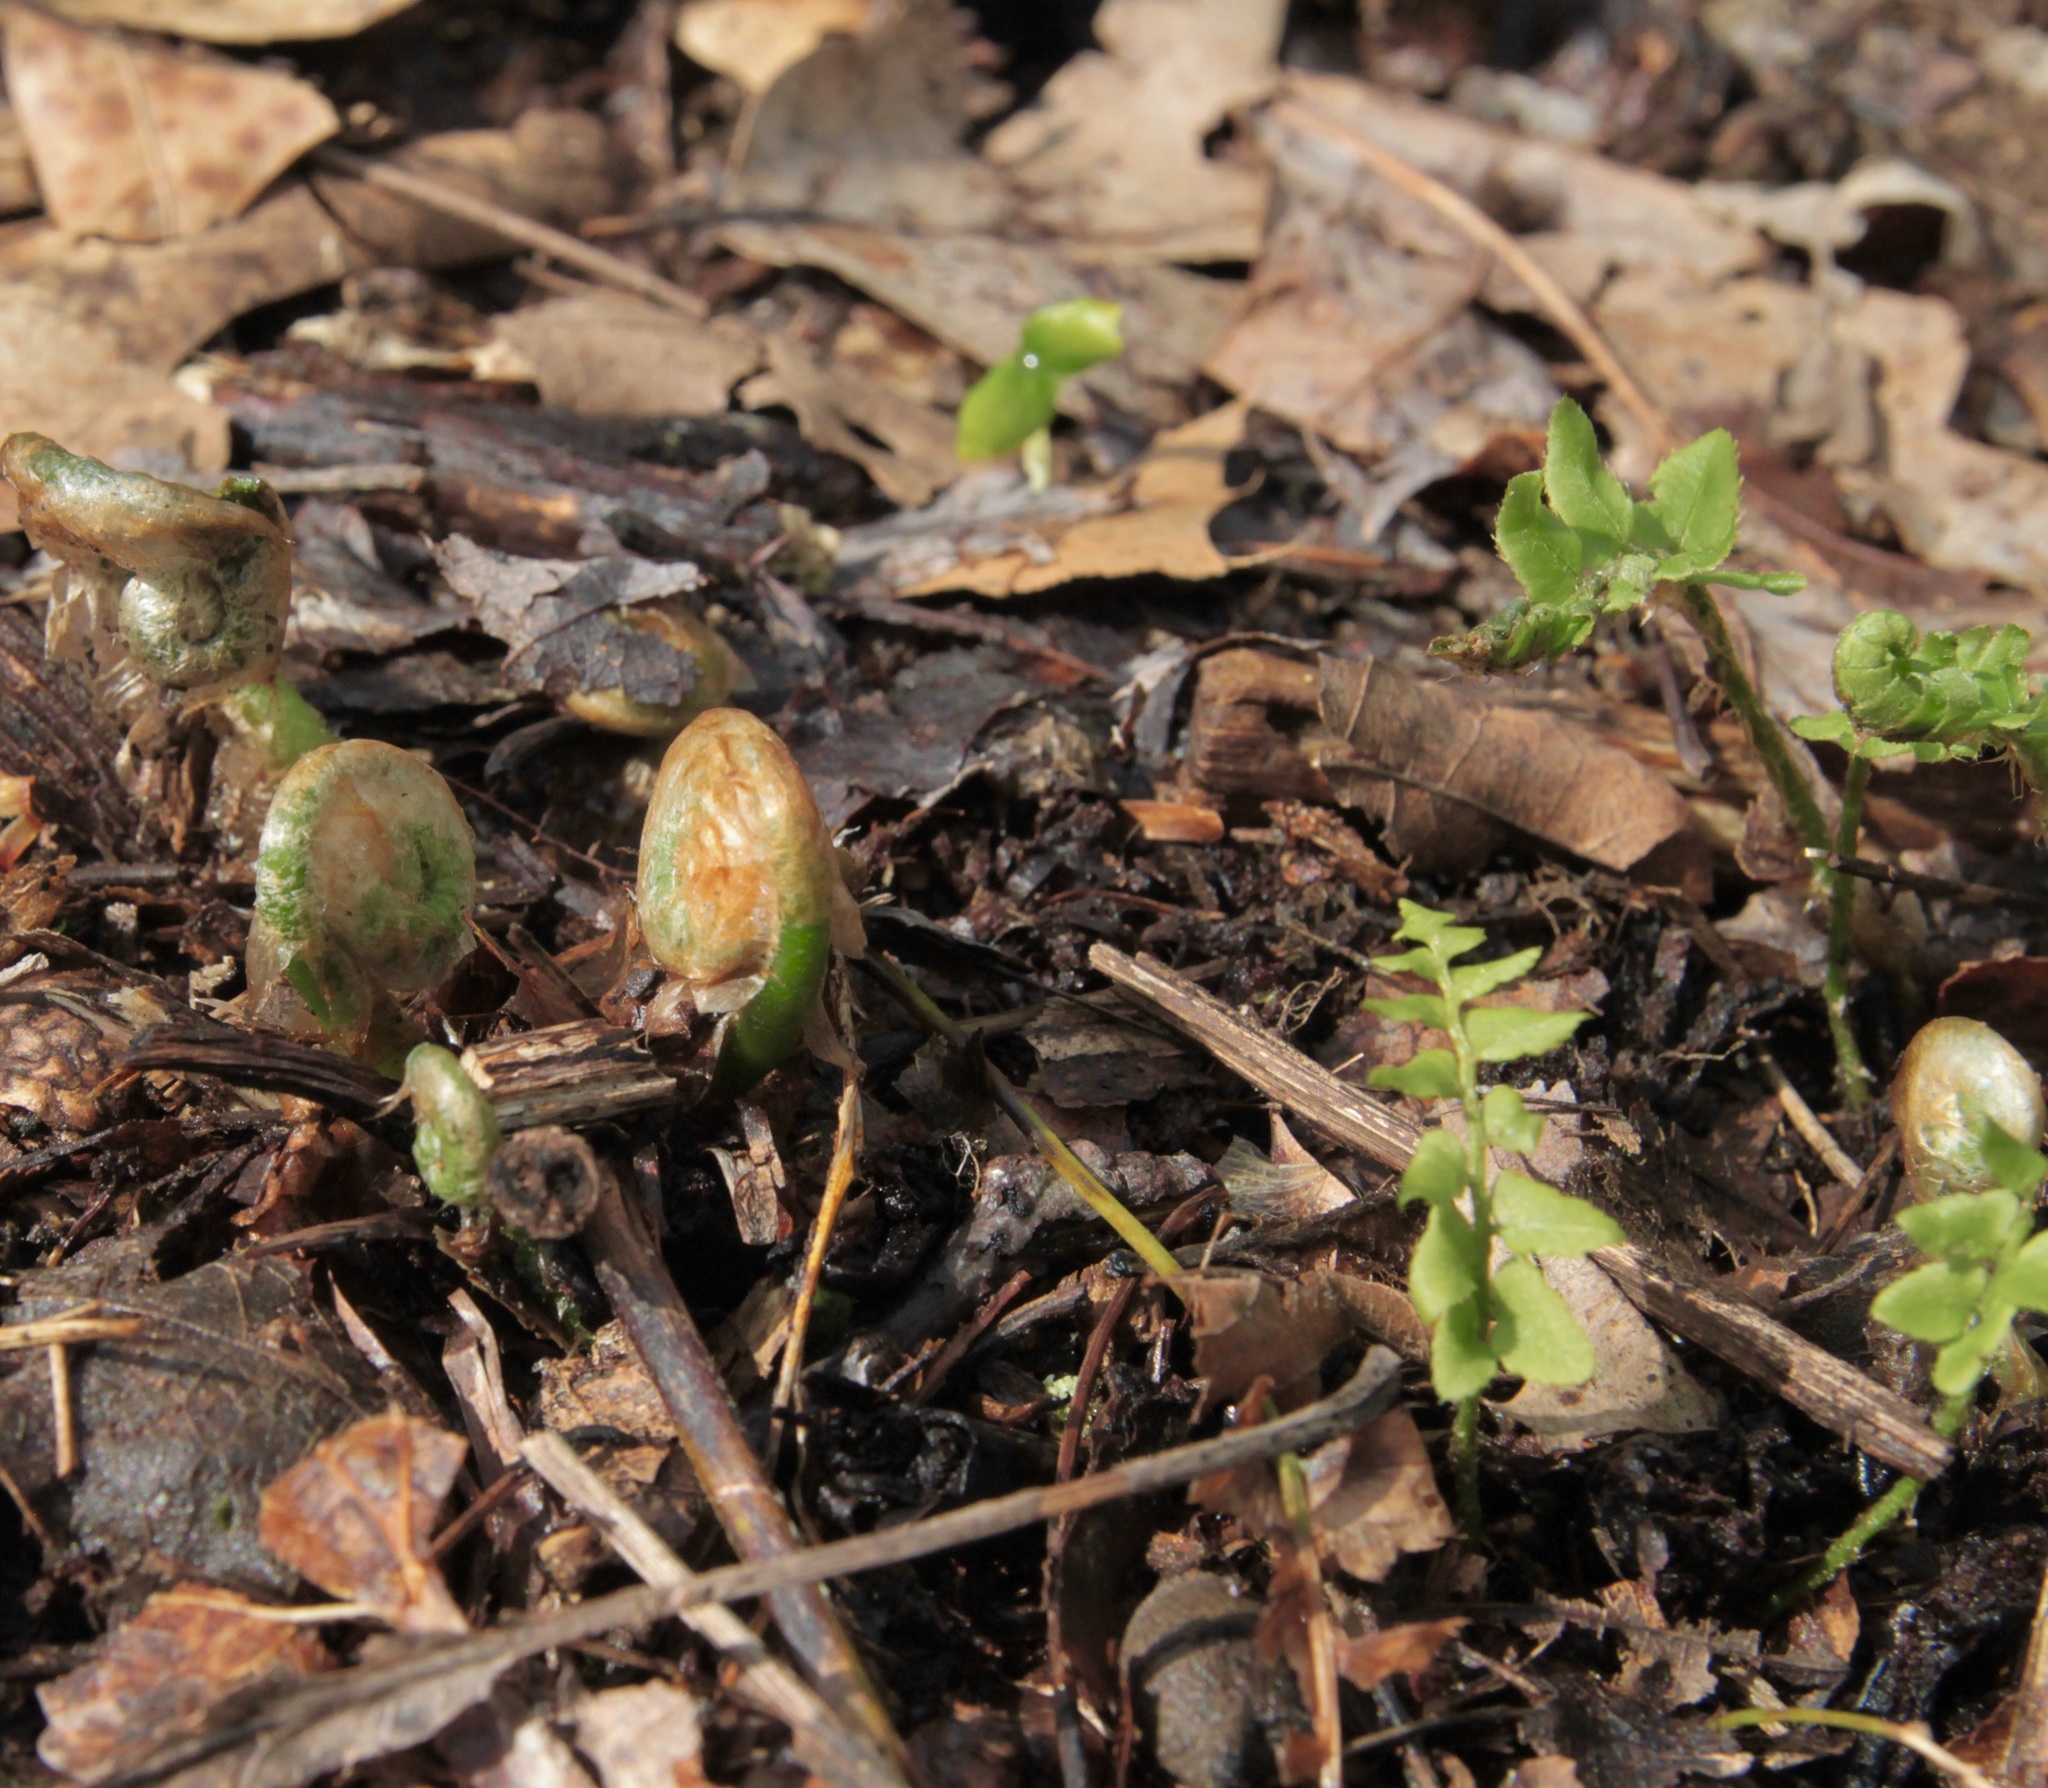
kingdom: Plantae
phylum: Tracheophyta
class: Polypodiopsida
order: Polypodiales
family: Dryopteridaceae
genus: Polystichum
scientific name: Polystichum acrostichoides
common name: Christmas fern
